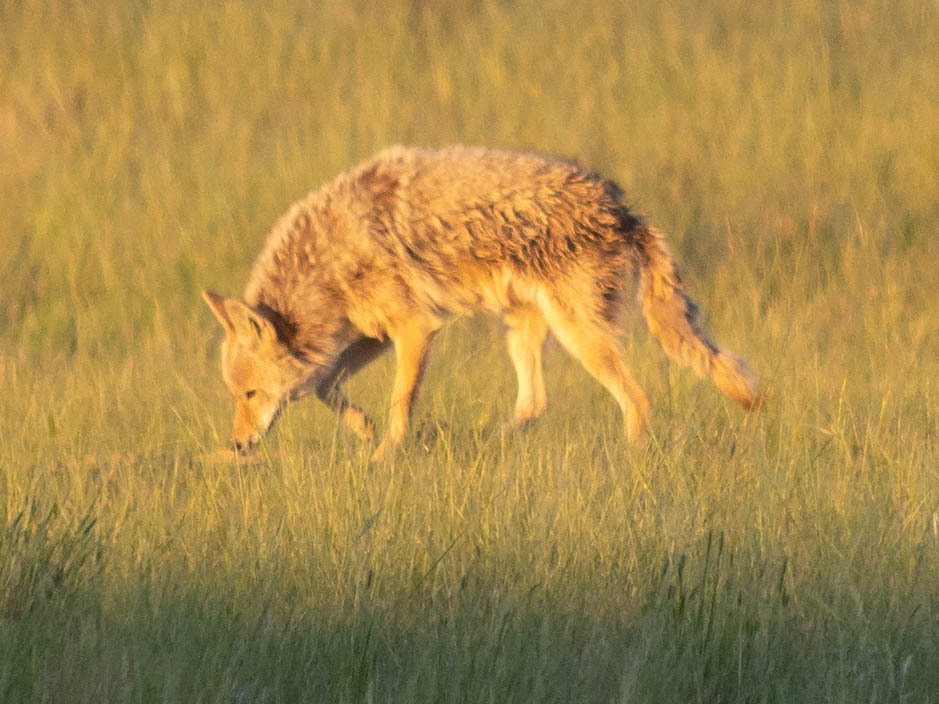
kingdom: Animalia
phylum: Chordata
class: Mammalia
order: Carnivora
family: Canidae
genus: Canis
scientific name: Canis latrans
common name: Coyote
